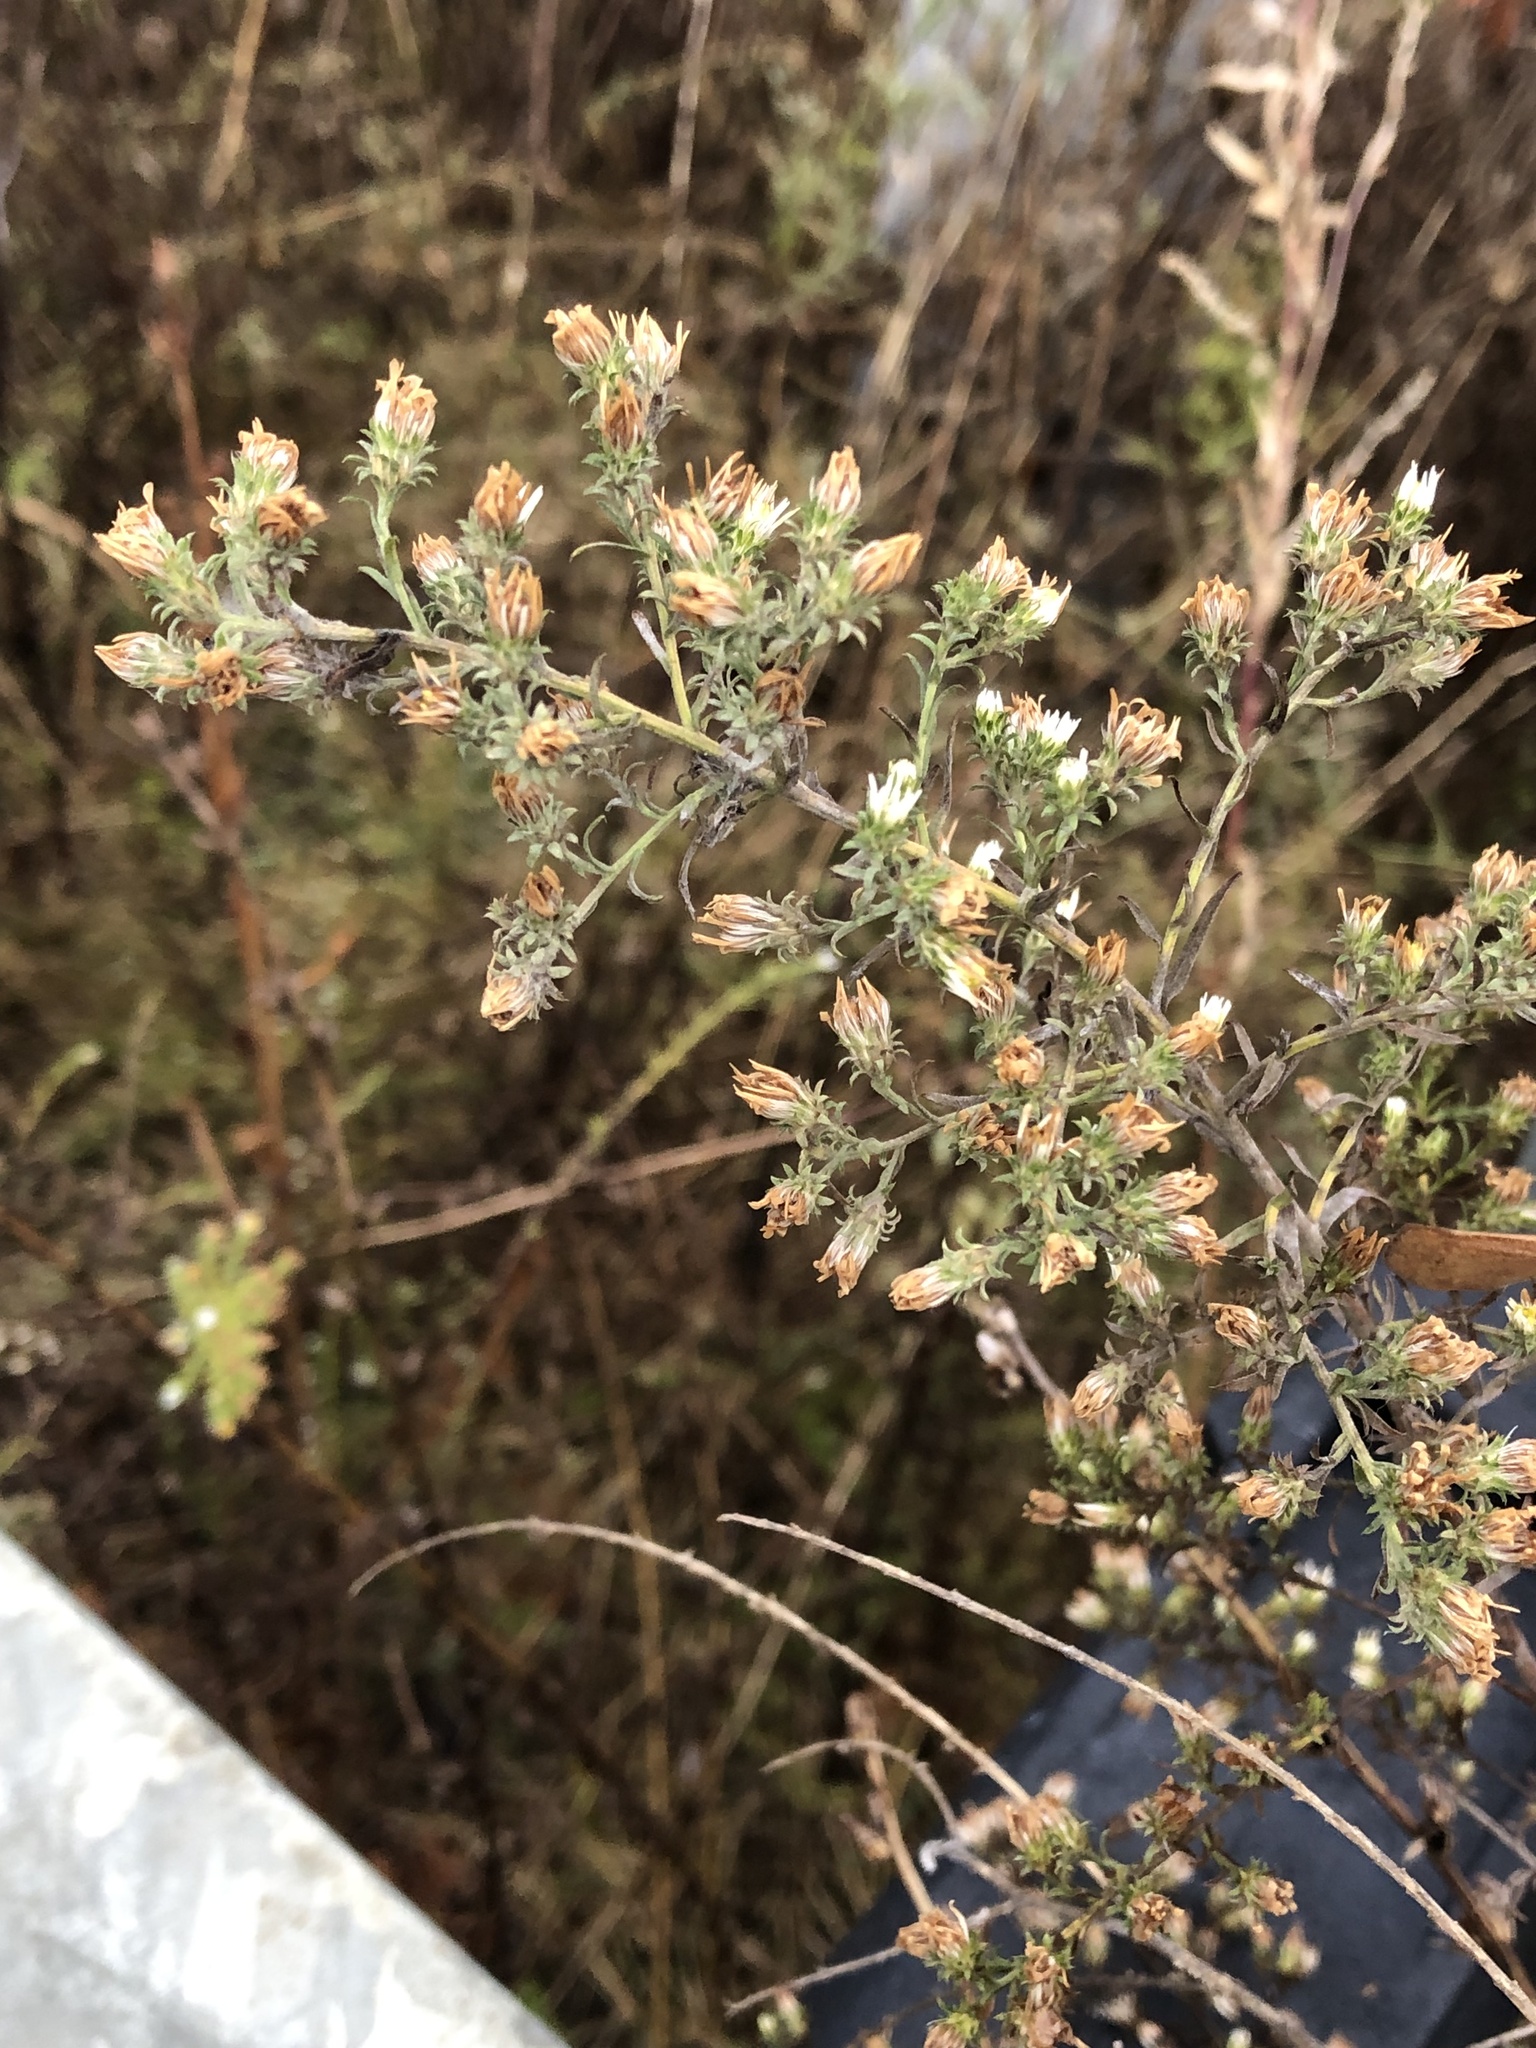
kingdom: Plantae
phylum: Tracheophyta
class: Magnoliopsida
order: Asterales
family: Asteraceae
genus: Symphyotrichum
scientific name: Symphyotrichum ericoides
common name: Heath aster
